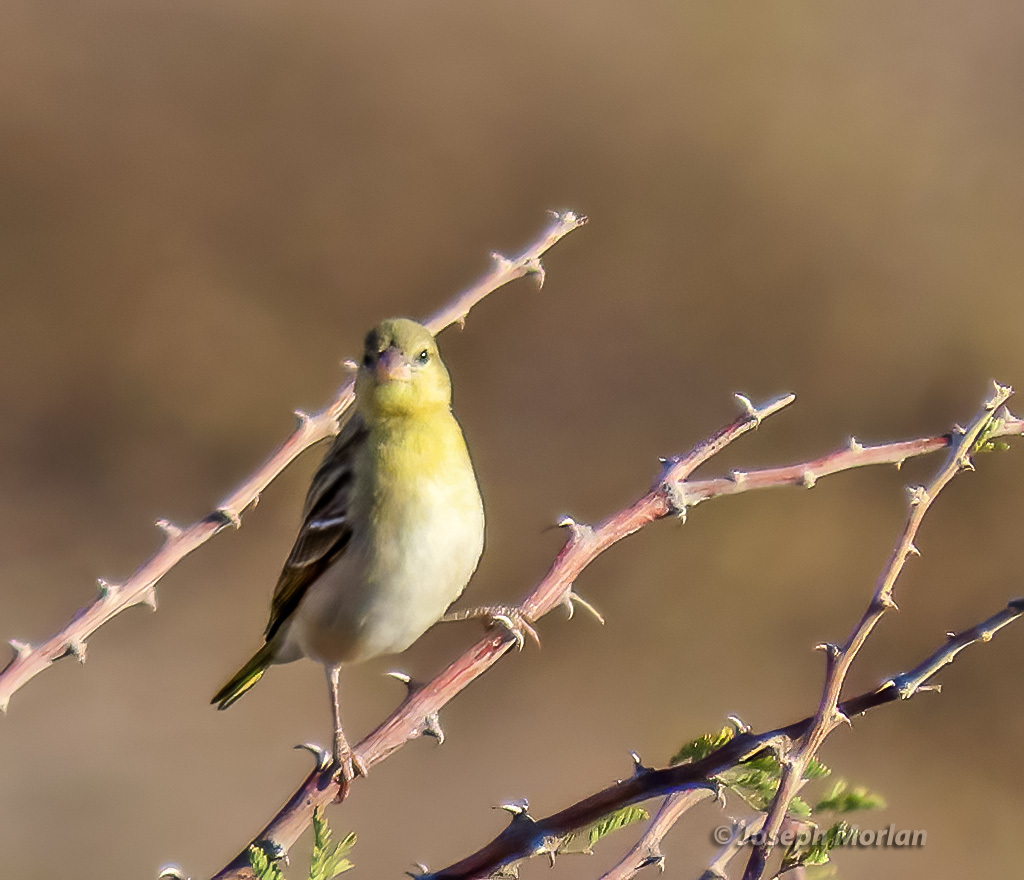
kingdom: Animalia
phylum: Chordata
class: Aves
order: Passeriformes
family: Ploceidae
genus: Ploceus
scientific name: Ploceus velatus
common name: Southern masked weaver
